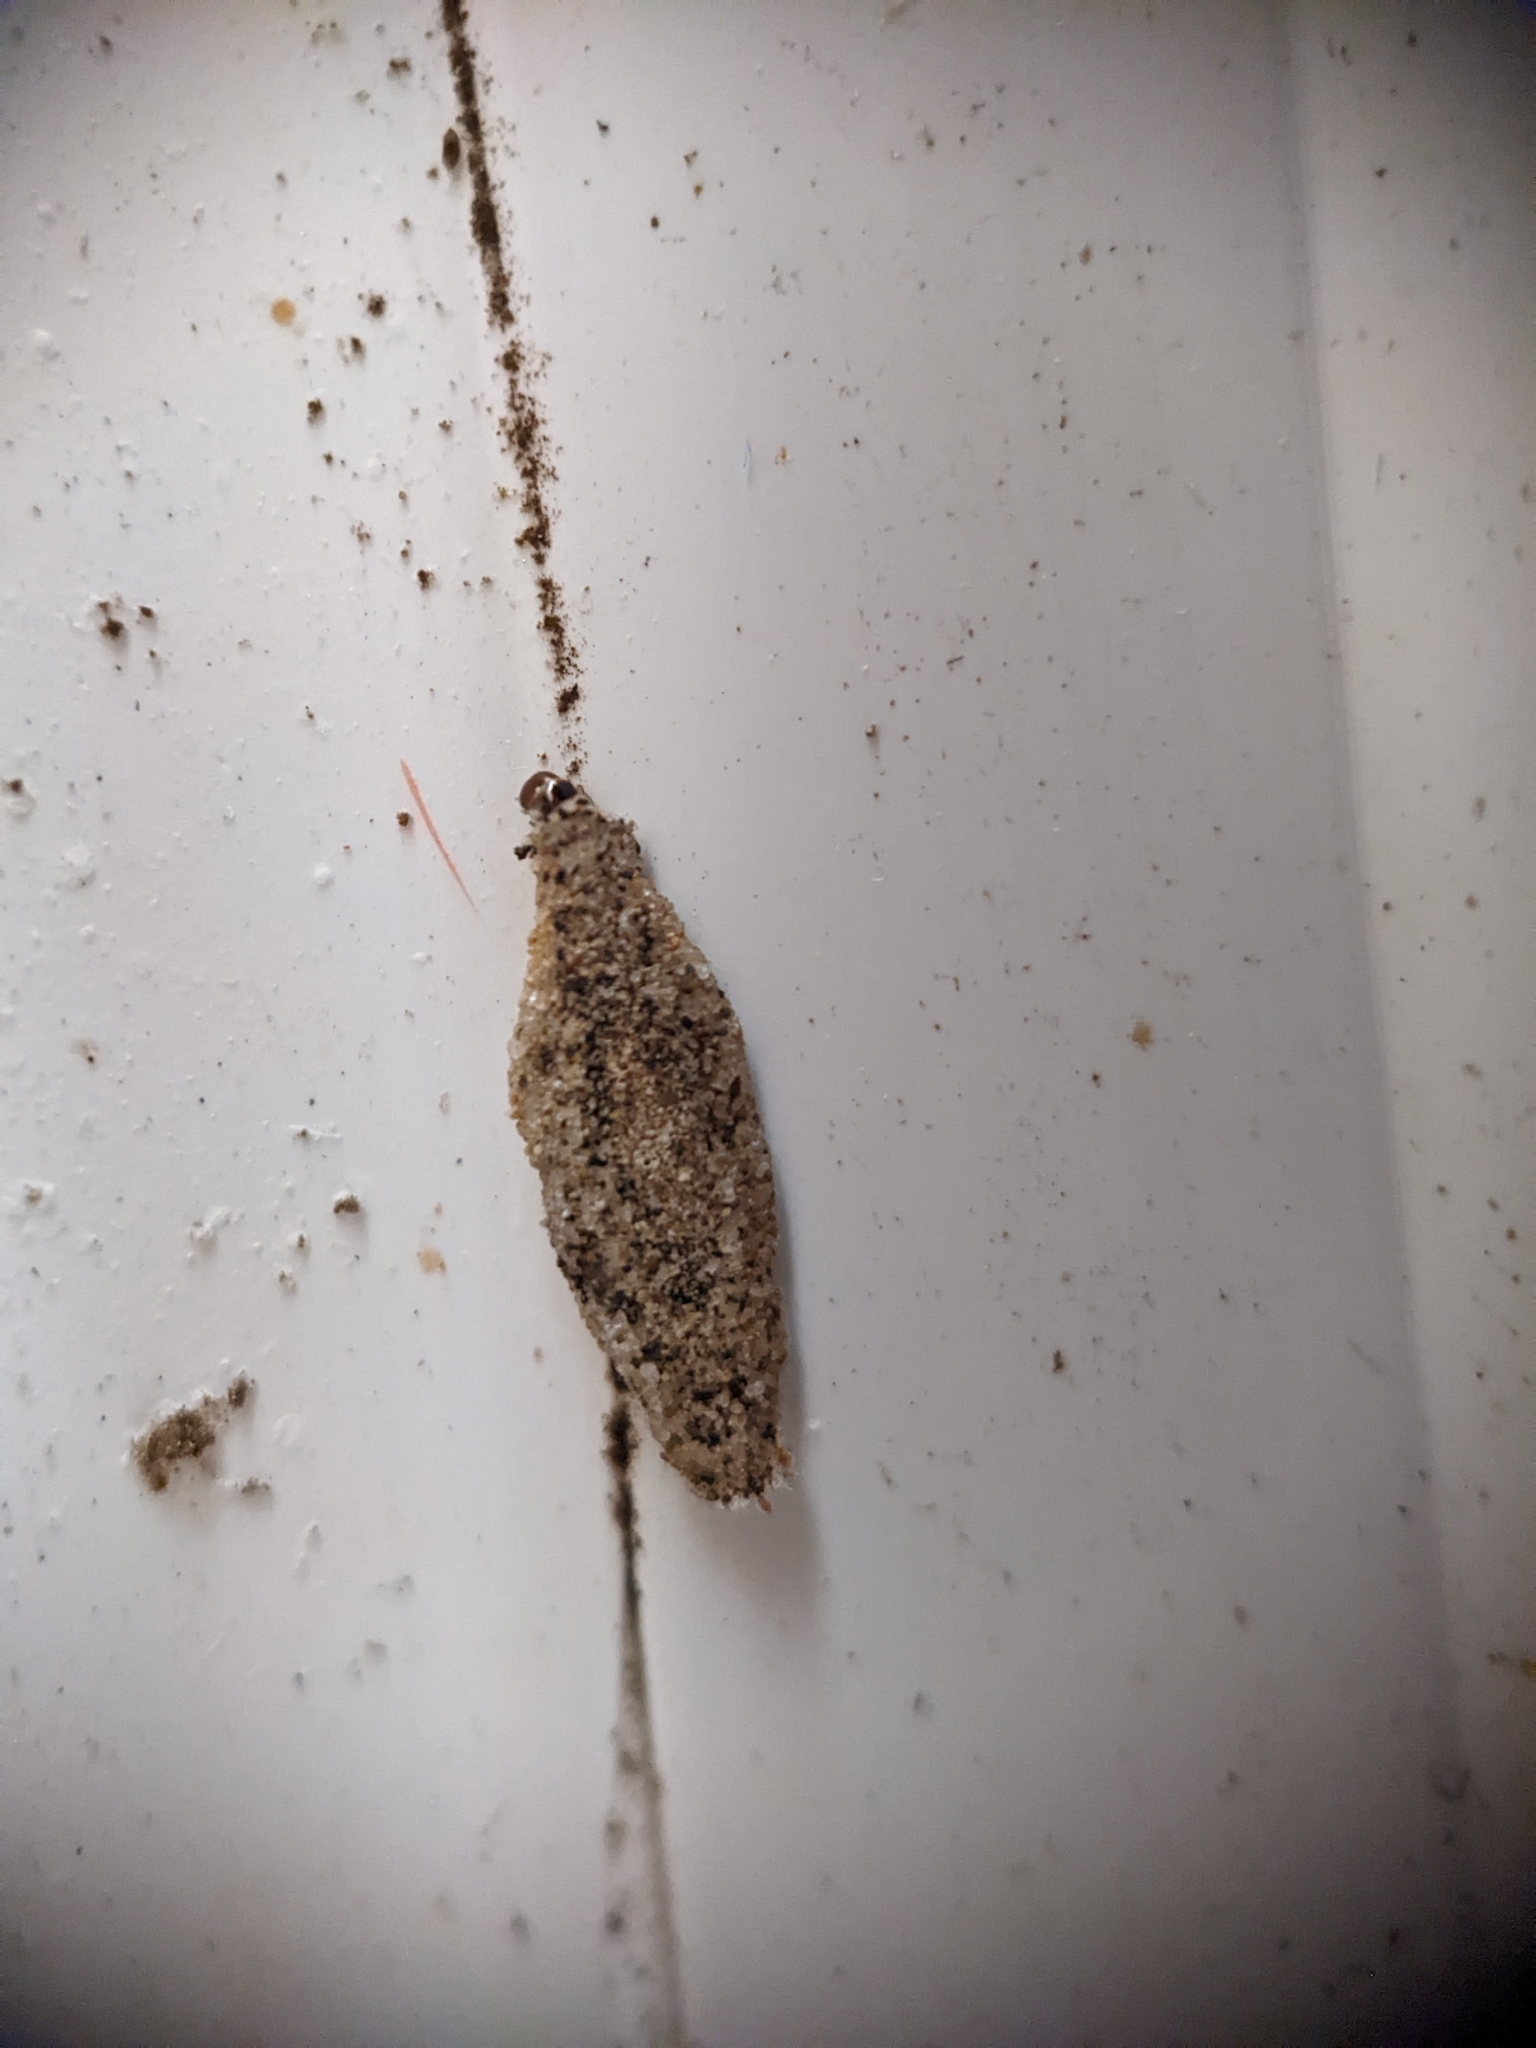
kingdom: Animalia
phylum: Arthropoda
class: Insecta
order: Lepidoptera
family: Tineidae
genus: Phereoeca
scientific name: Phereoeca uterella
